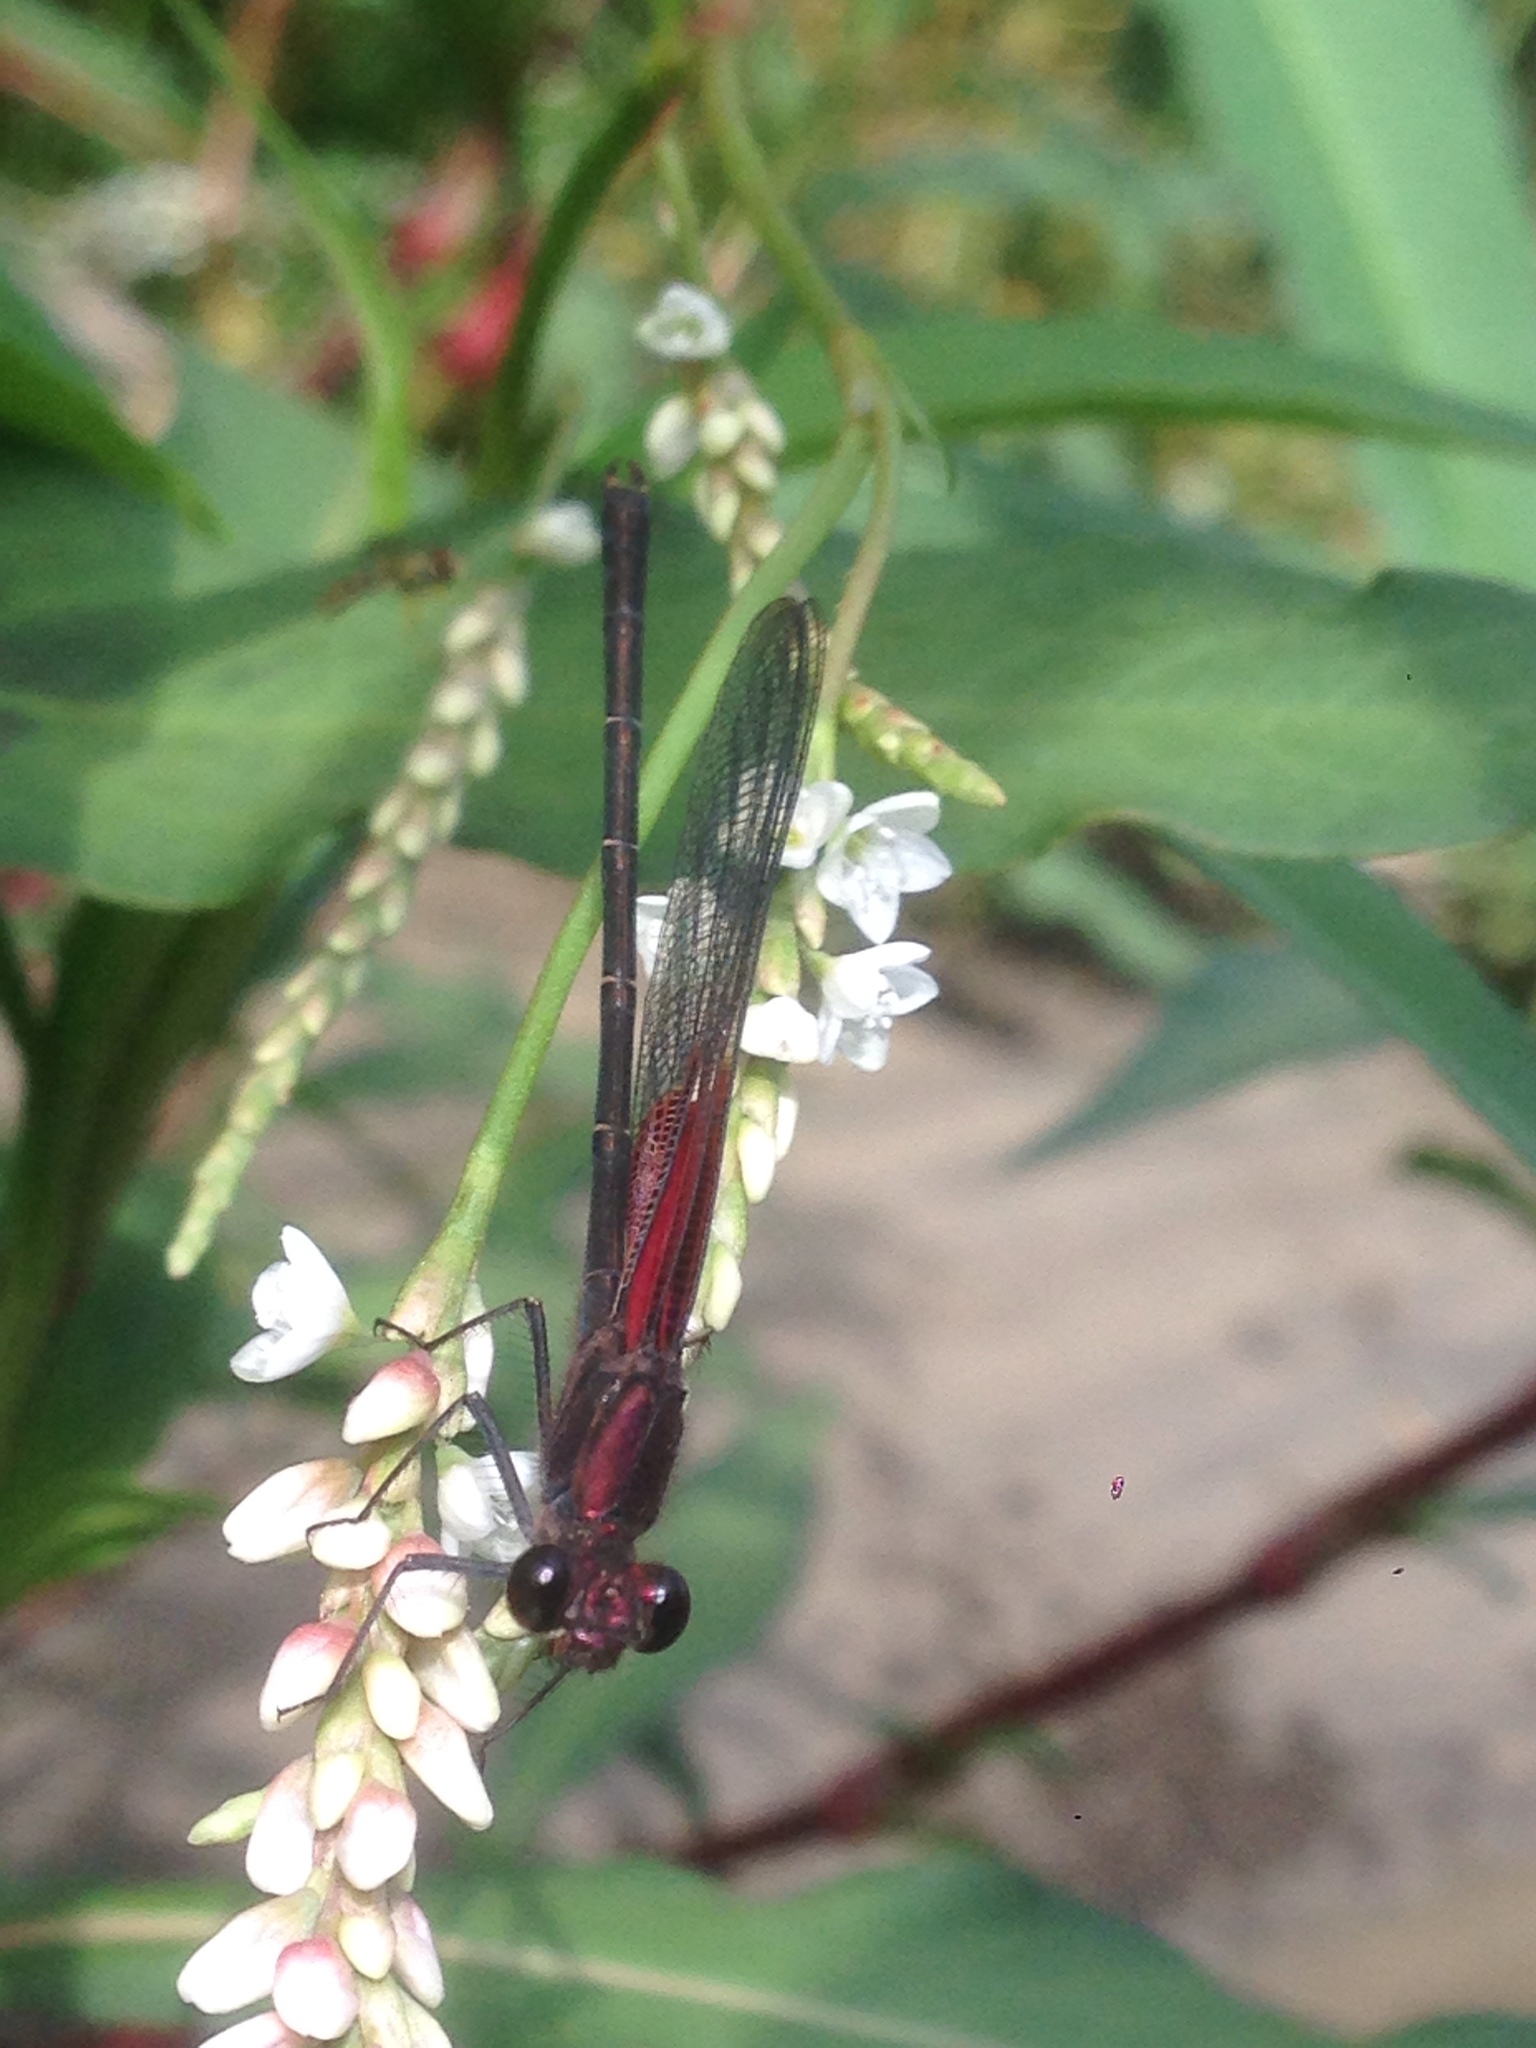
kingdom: Animalia
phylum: Arthropoda
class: Insecta
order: Odonata
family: Calopterygidae
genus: Hetaerina
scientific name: Hetaerina americana
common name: American rubyspot
